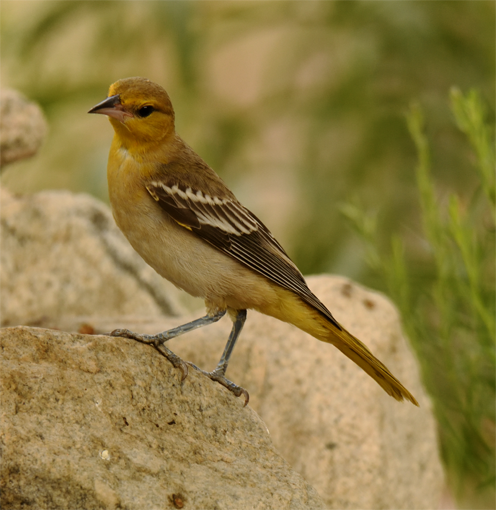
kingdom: Animalia
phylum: Chordata
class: Aves
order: Passeriformes
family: Icteridae
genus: Icterus
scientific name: Icterus bullockii
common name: Bullock's oriole
